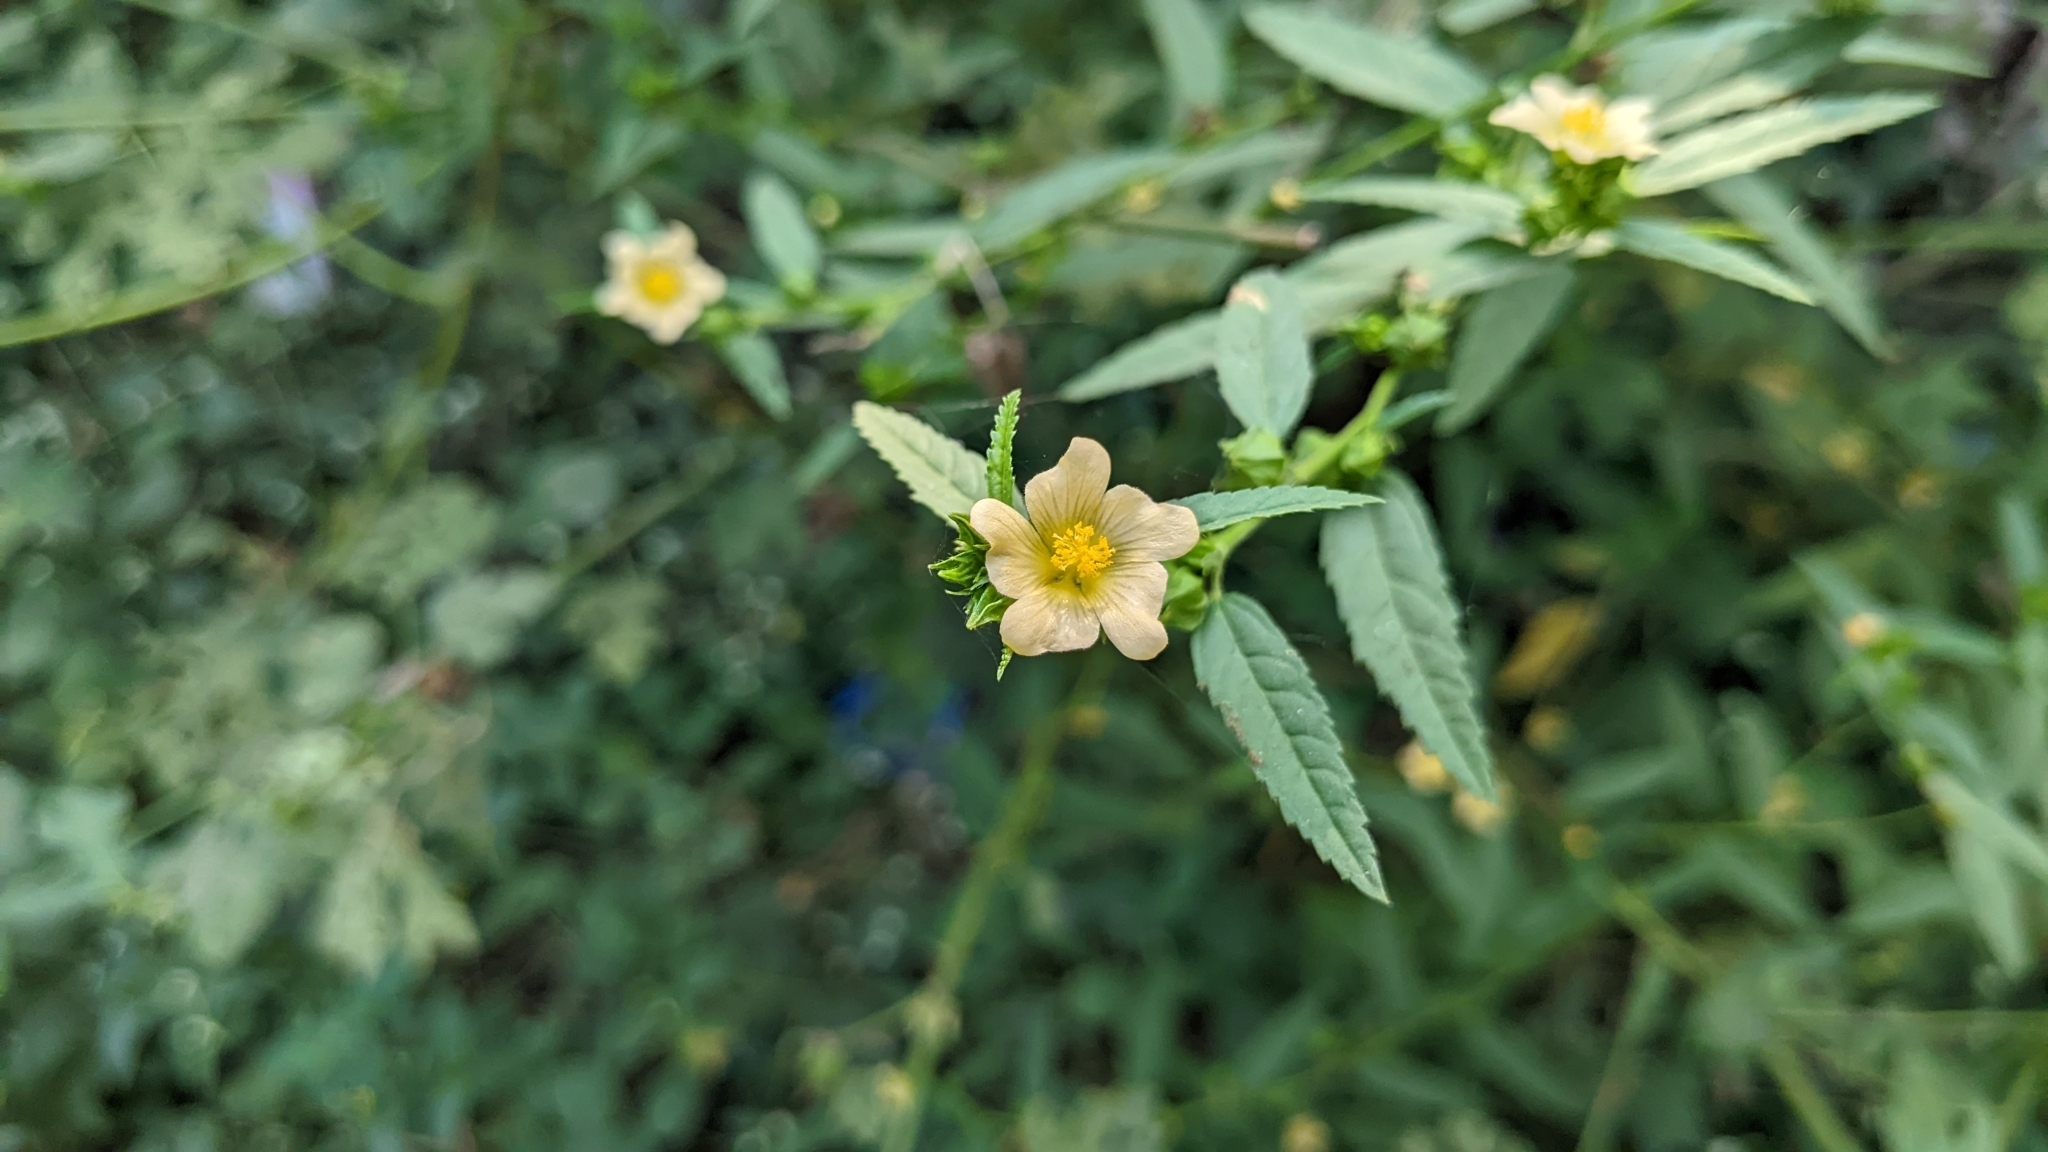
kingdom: Plantae
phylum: Tracheophyta
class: Magnoliopsida
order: Malvales
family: Malvaceae
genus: Sida
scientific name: Sida acuta
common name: Common wireweed
